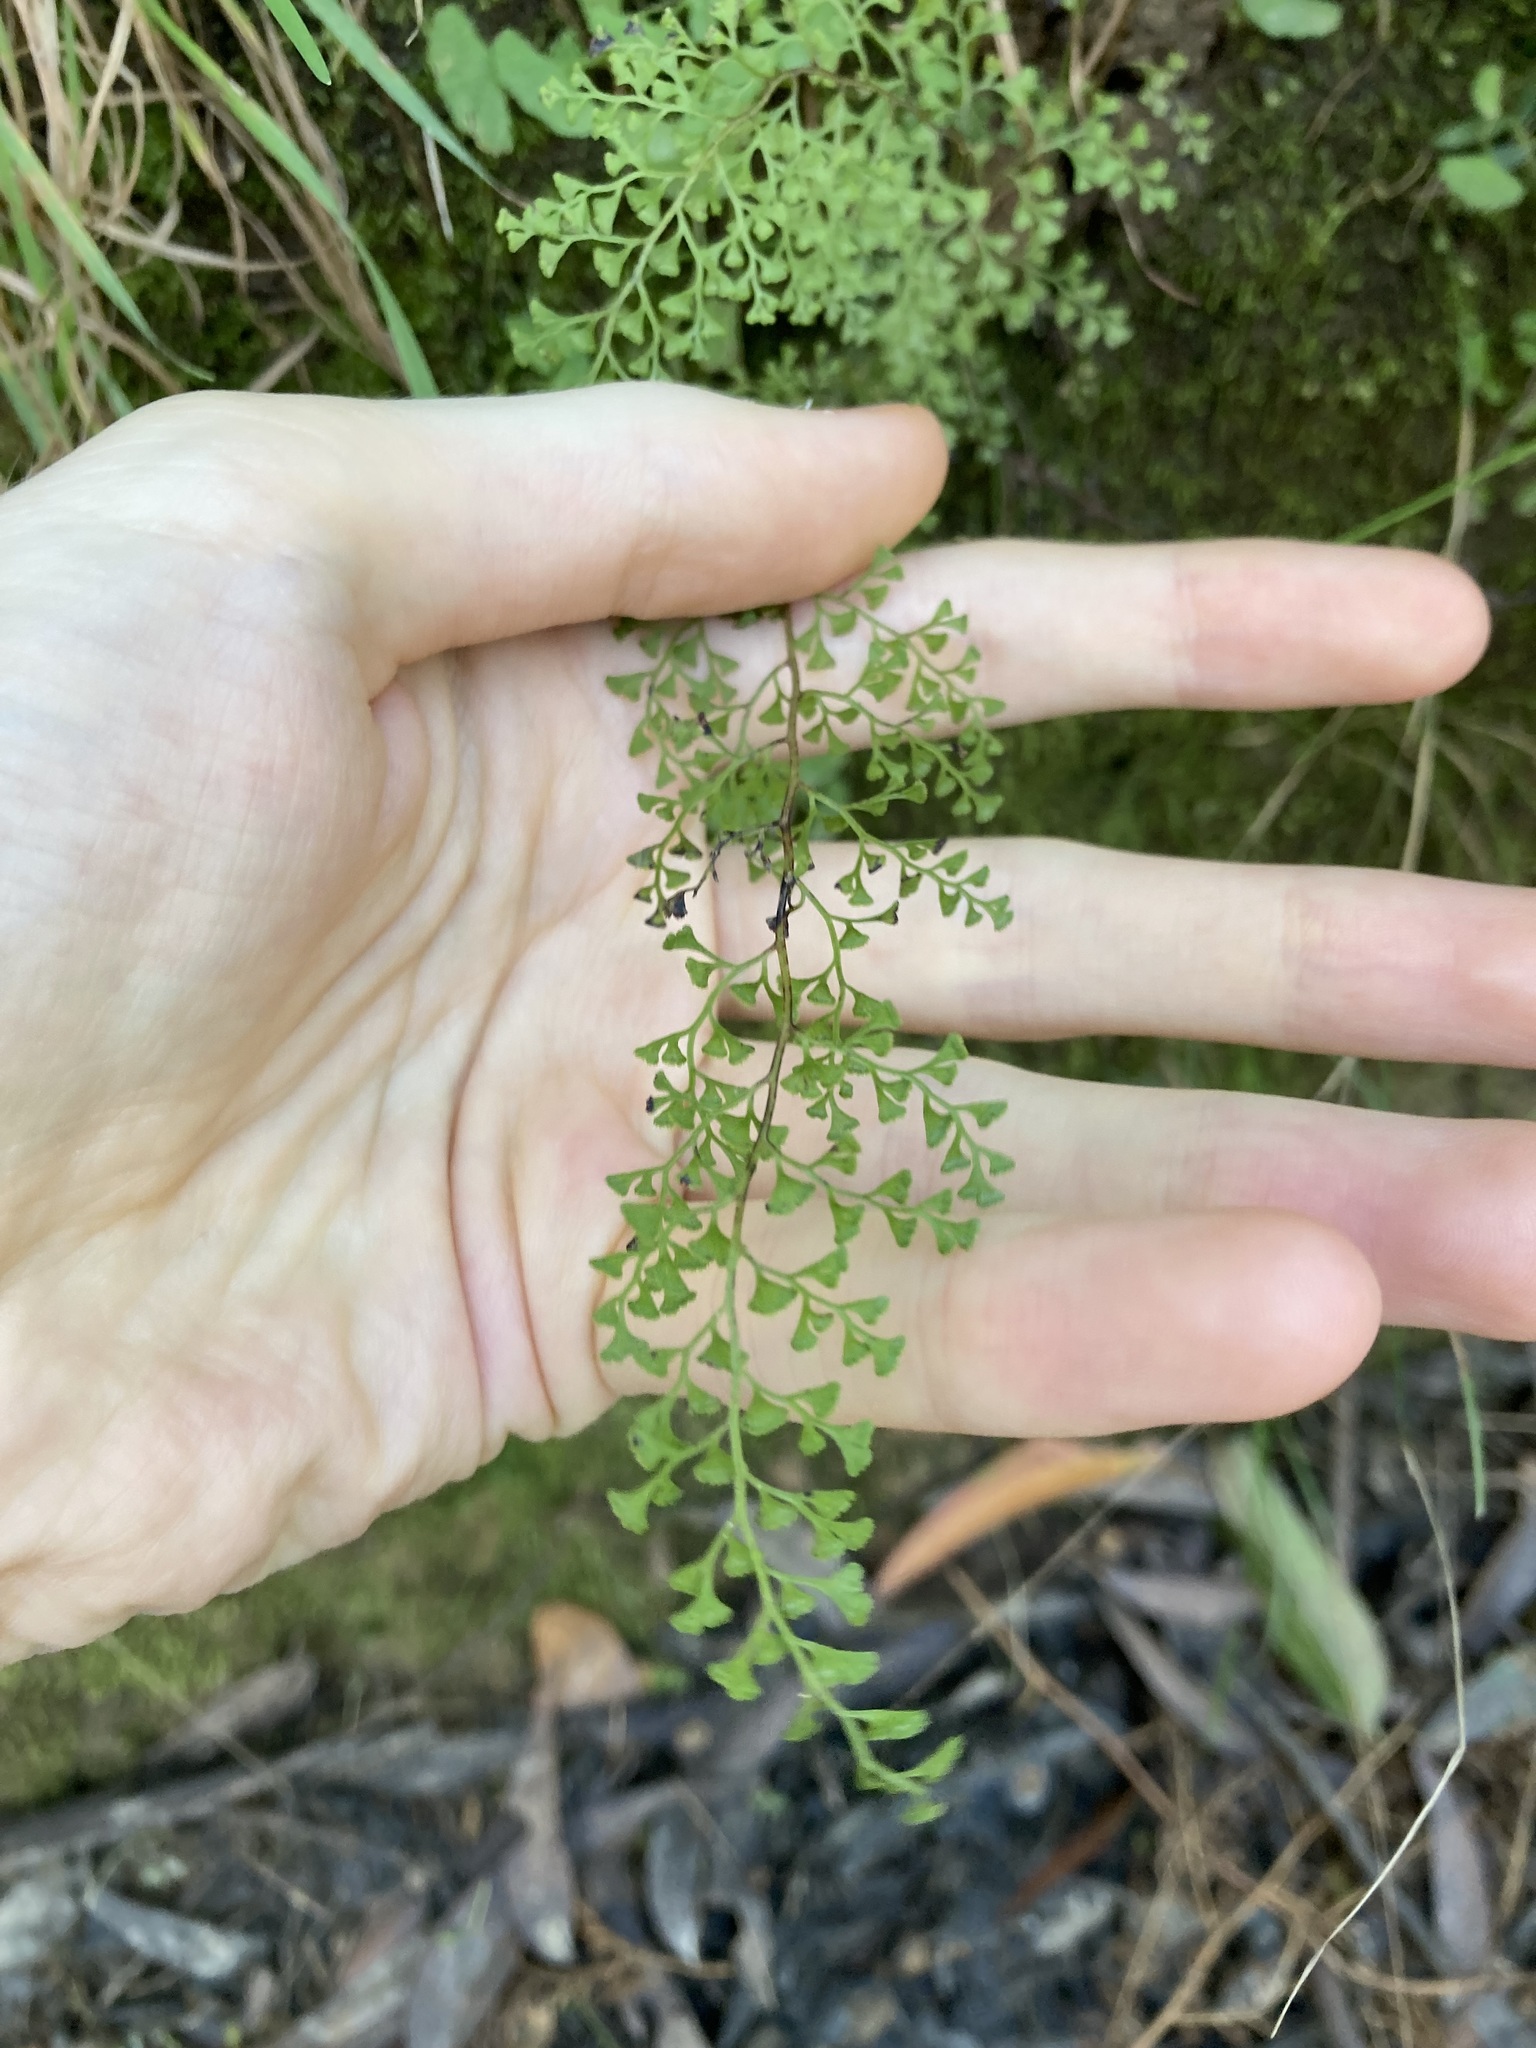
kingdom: Plantae
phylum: Tracheophyta
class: Polypodiopsida
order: Polypodiales
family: Lindsaeaceae
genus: Lindsaea
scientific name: Lindsaea microphylla
